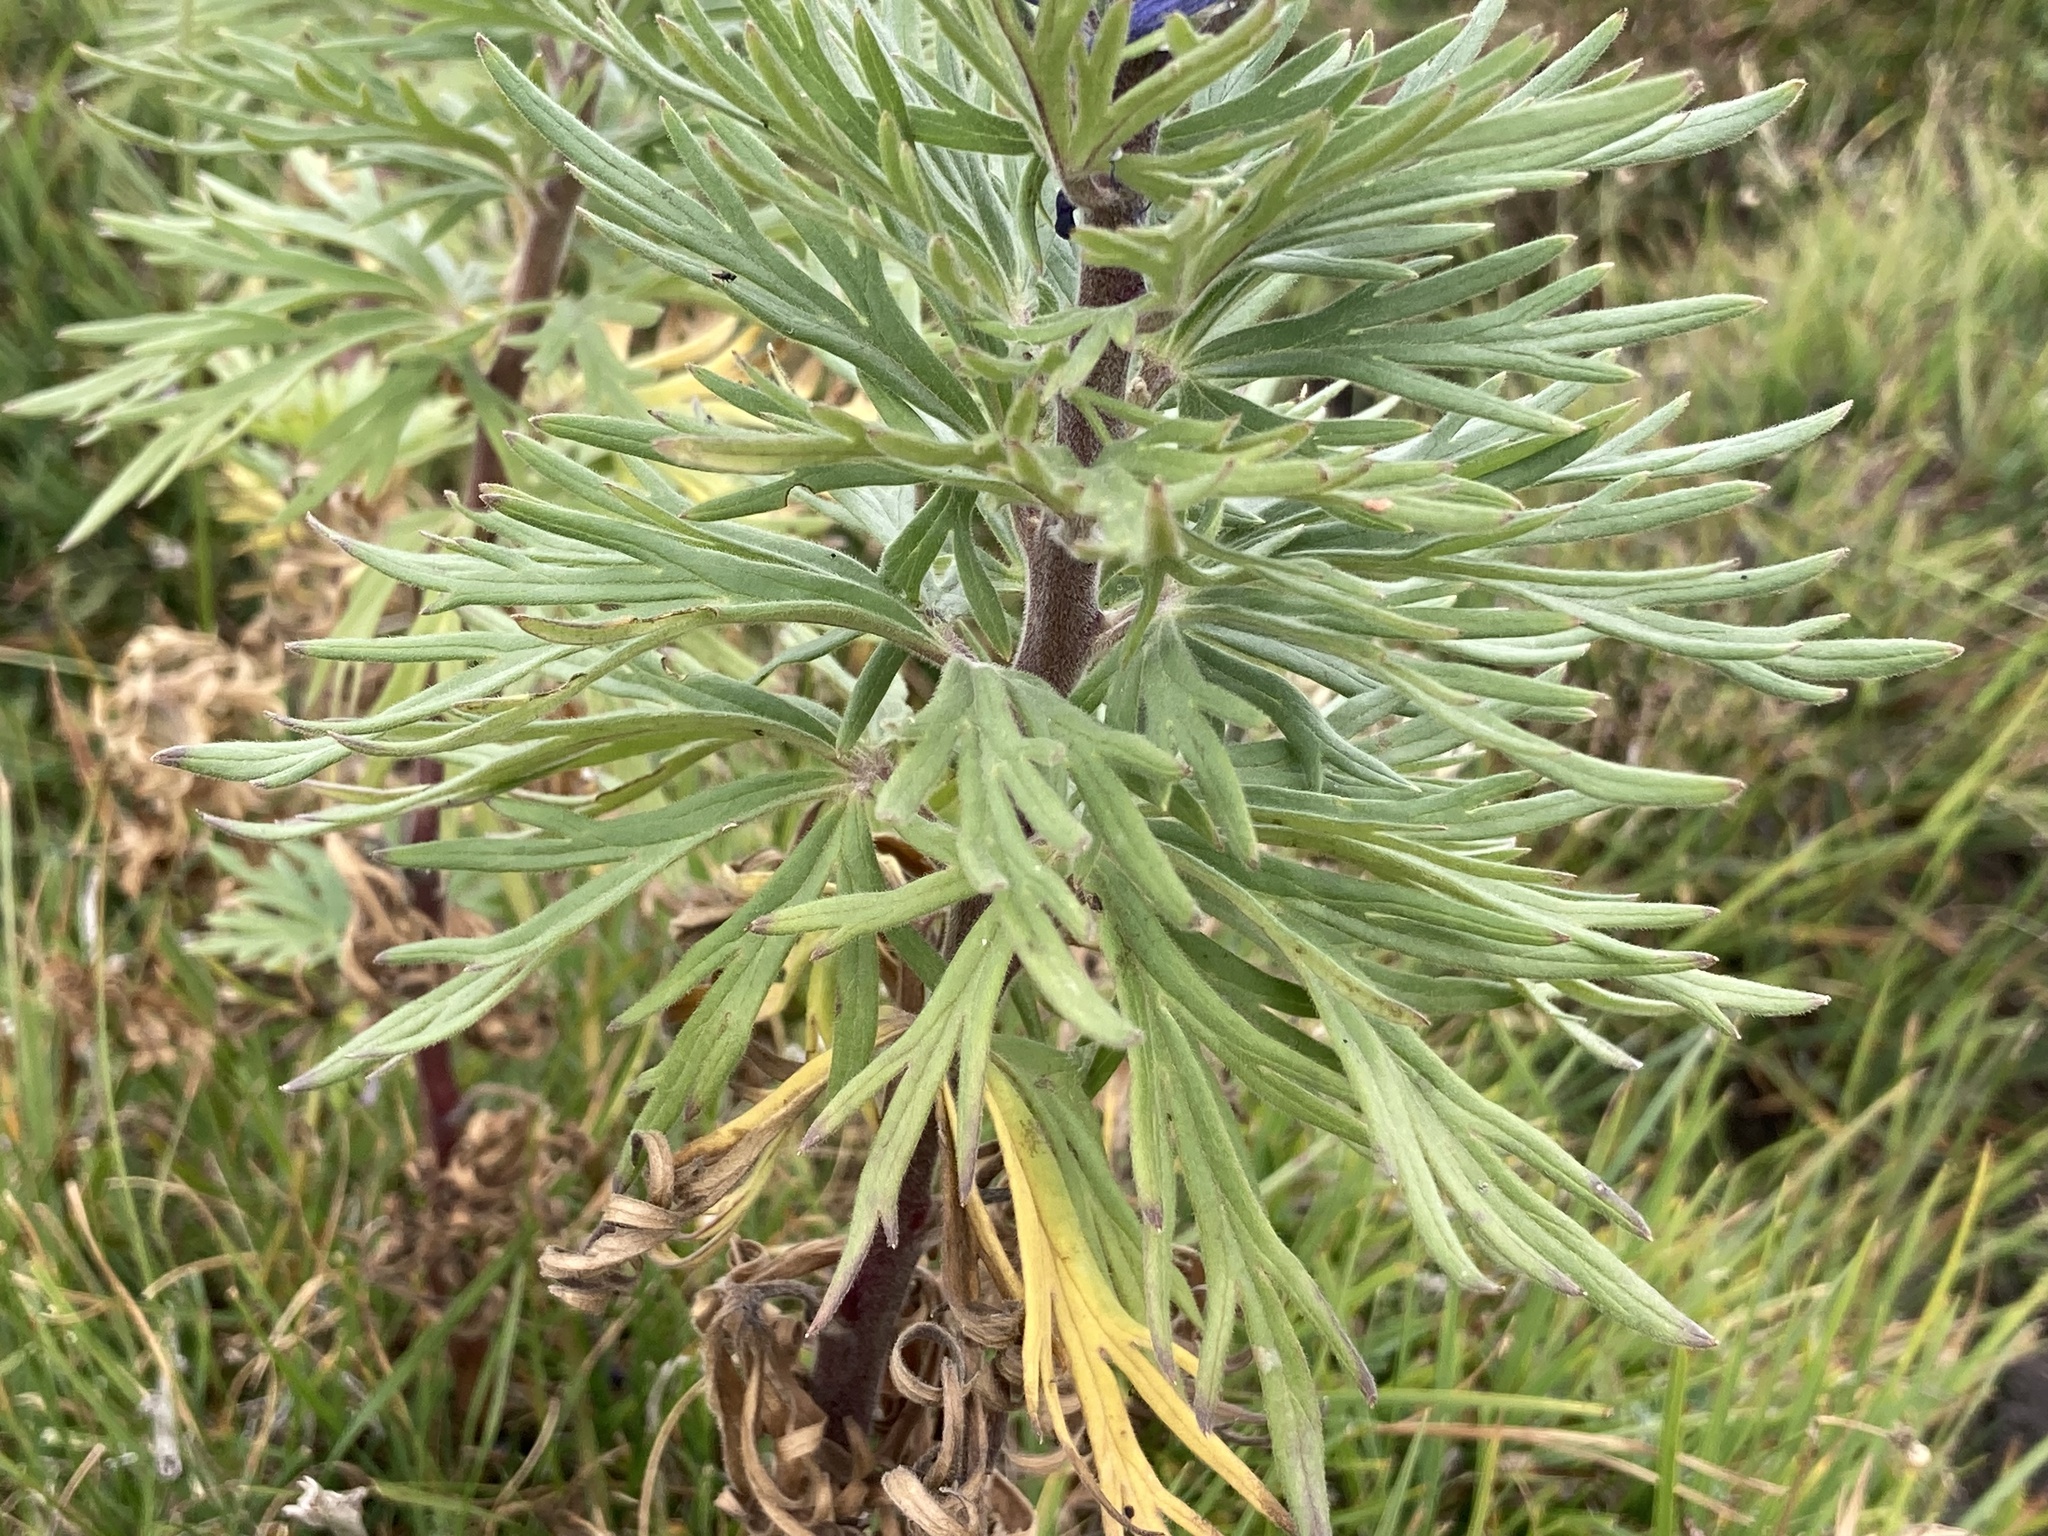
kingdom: Plantae
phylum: Tracheophyta
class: Magnoliopsida
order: Ranunculales
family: Ranunculaceae
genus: Aconitum
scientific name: Aconitum napellus
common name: Garden monkshood
